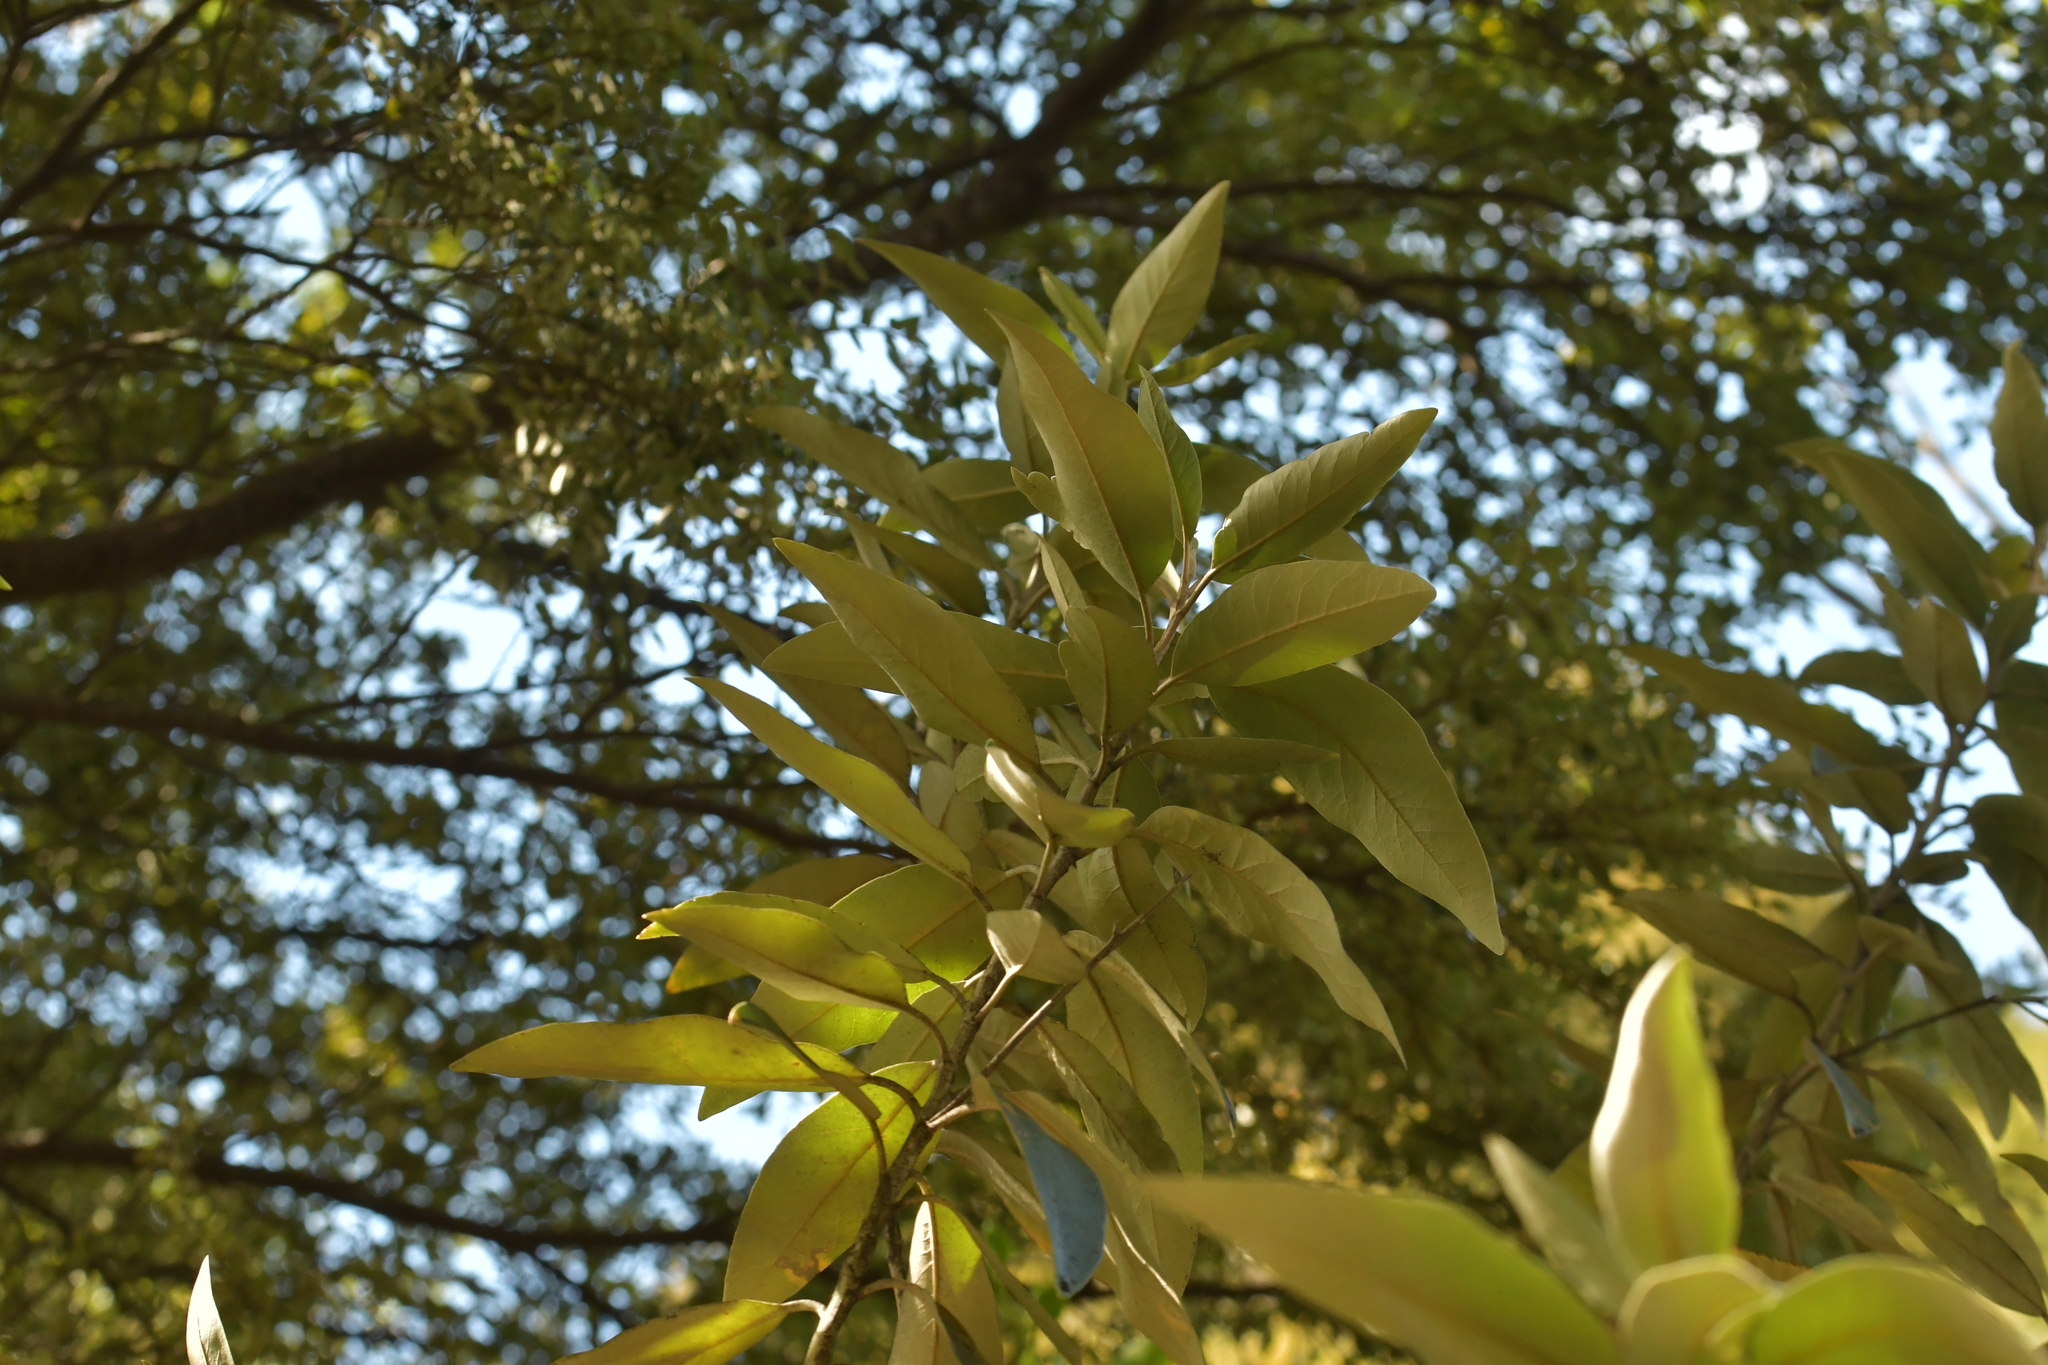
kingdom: Plantae
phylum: Tracheophyta
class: Magnoliopsida
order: Asterales
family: Asteraceae
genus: Olearia
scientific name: Olearia avicenniifolia
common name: Mangrove-leaf daisybush
